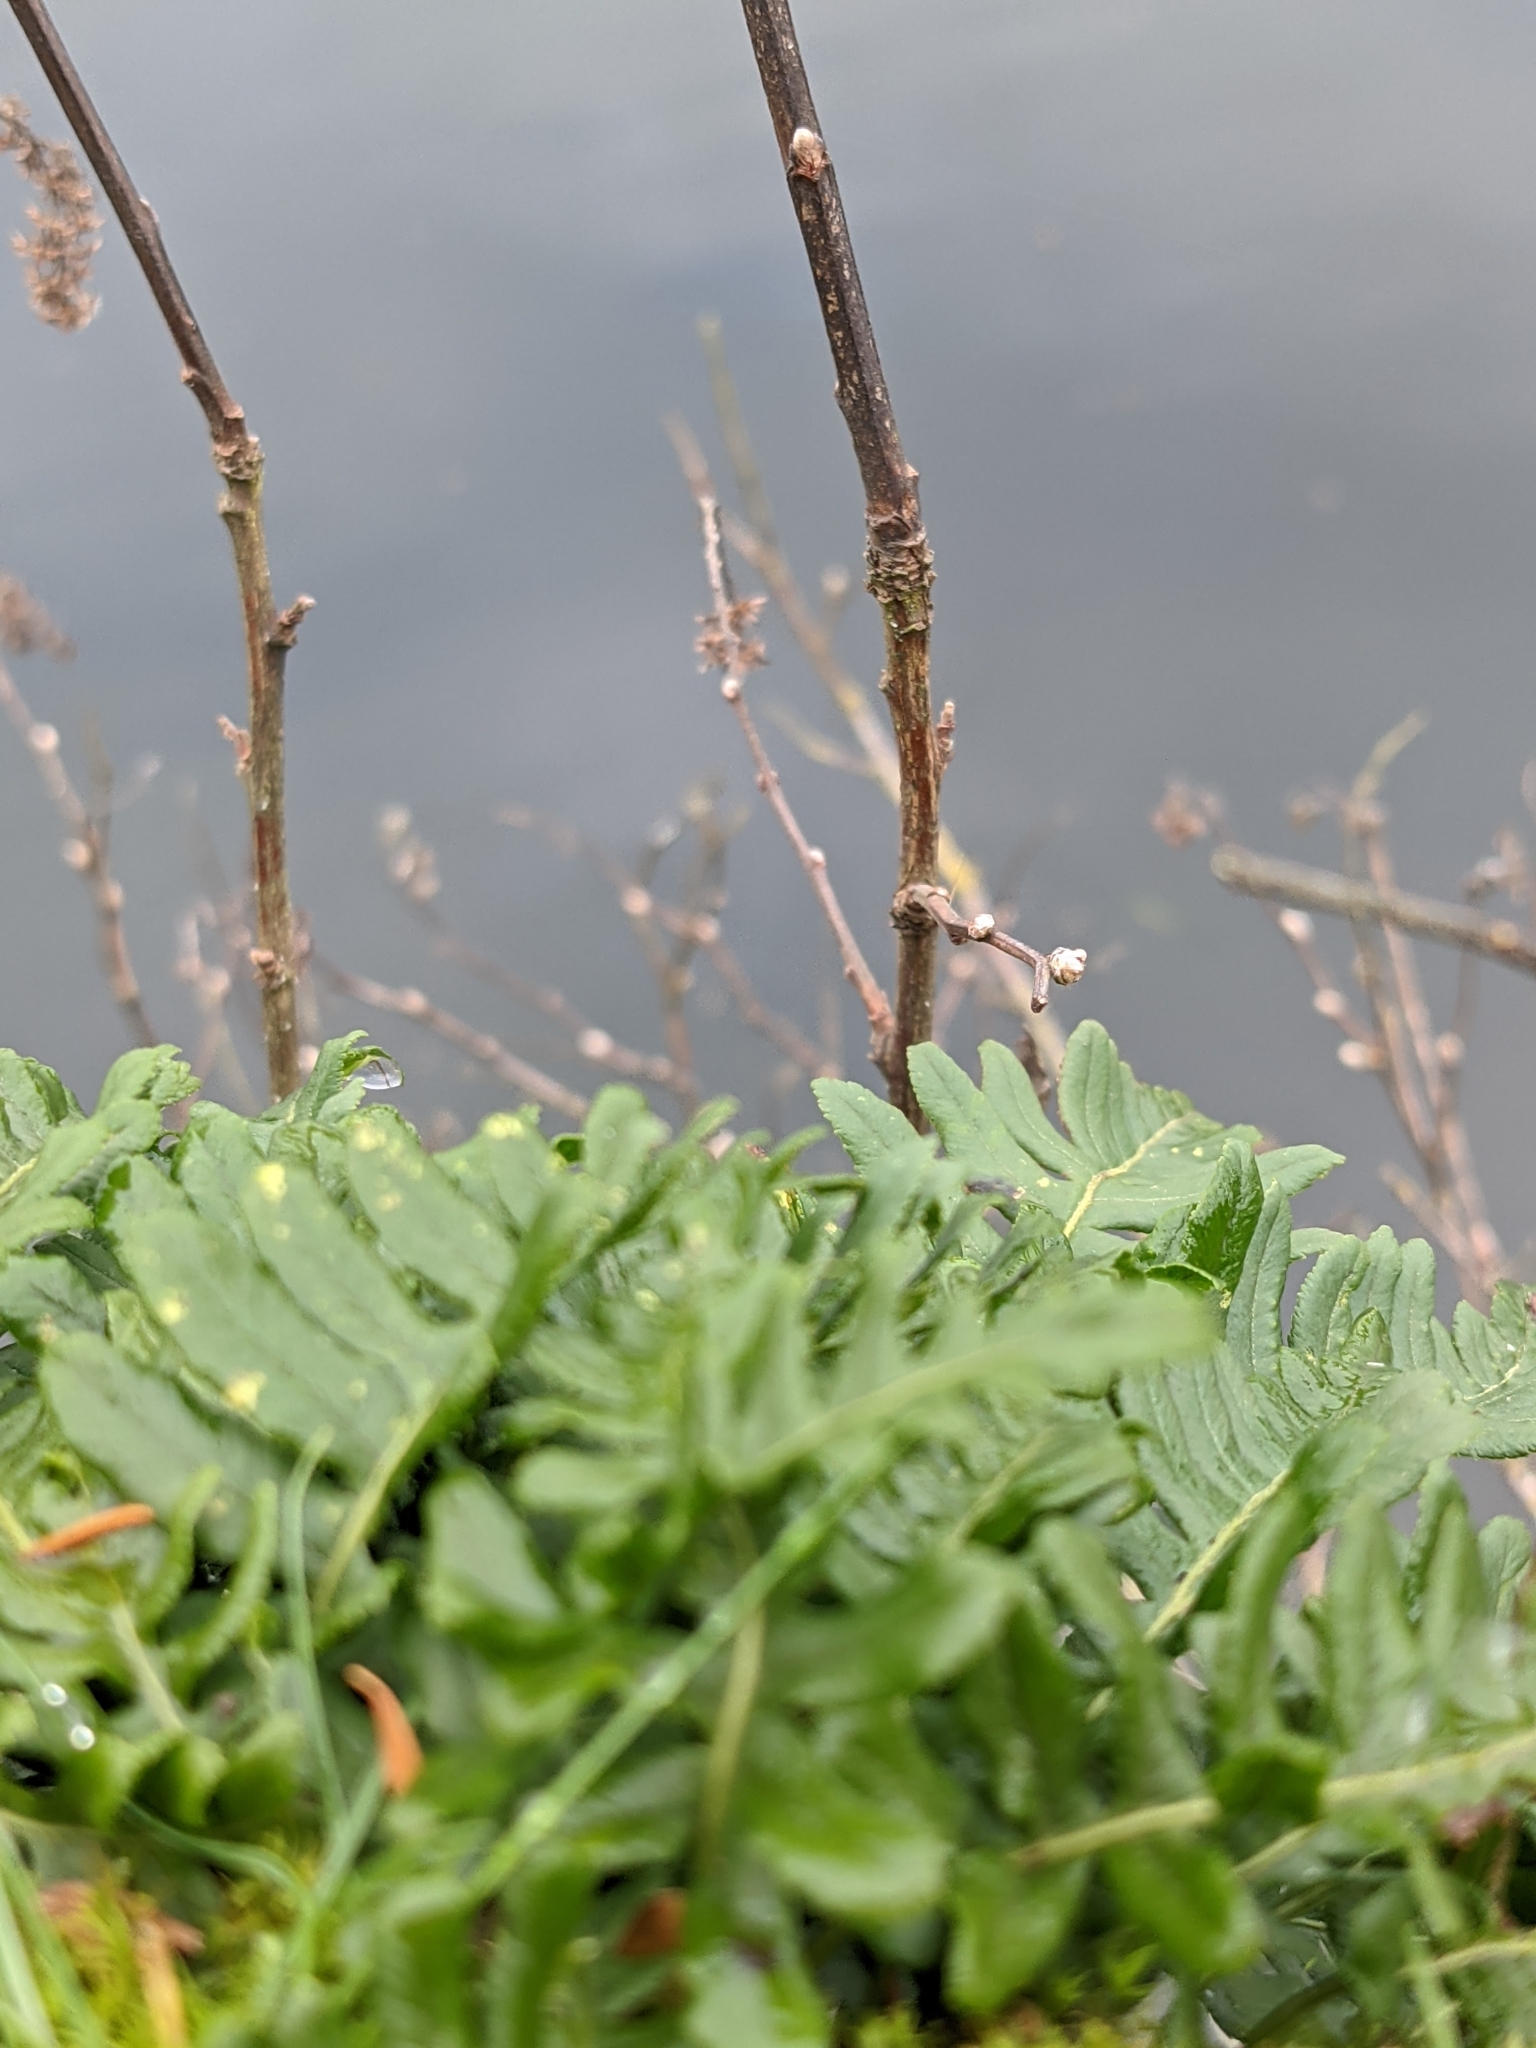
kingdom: Plantae
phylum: Tracheophyta
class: Polypodiopsida
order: Polypodiales
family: Polypodiaceae
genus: Polypodium
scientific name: Polypodium glycyrrhiza
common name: Licorice fern
